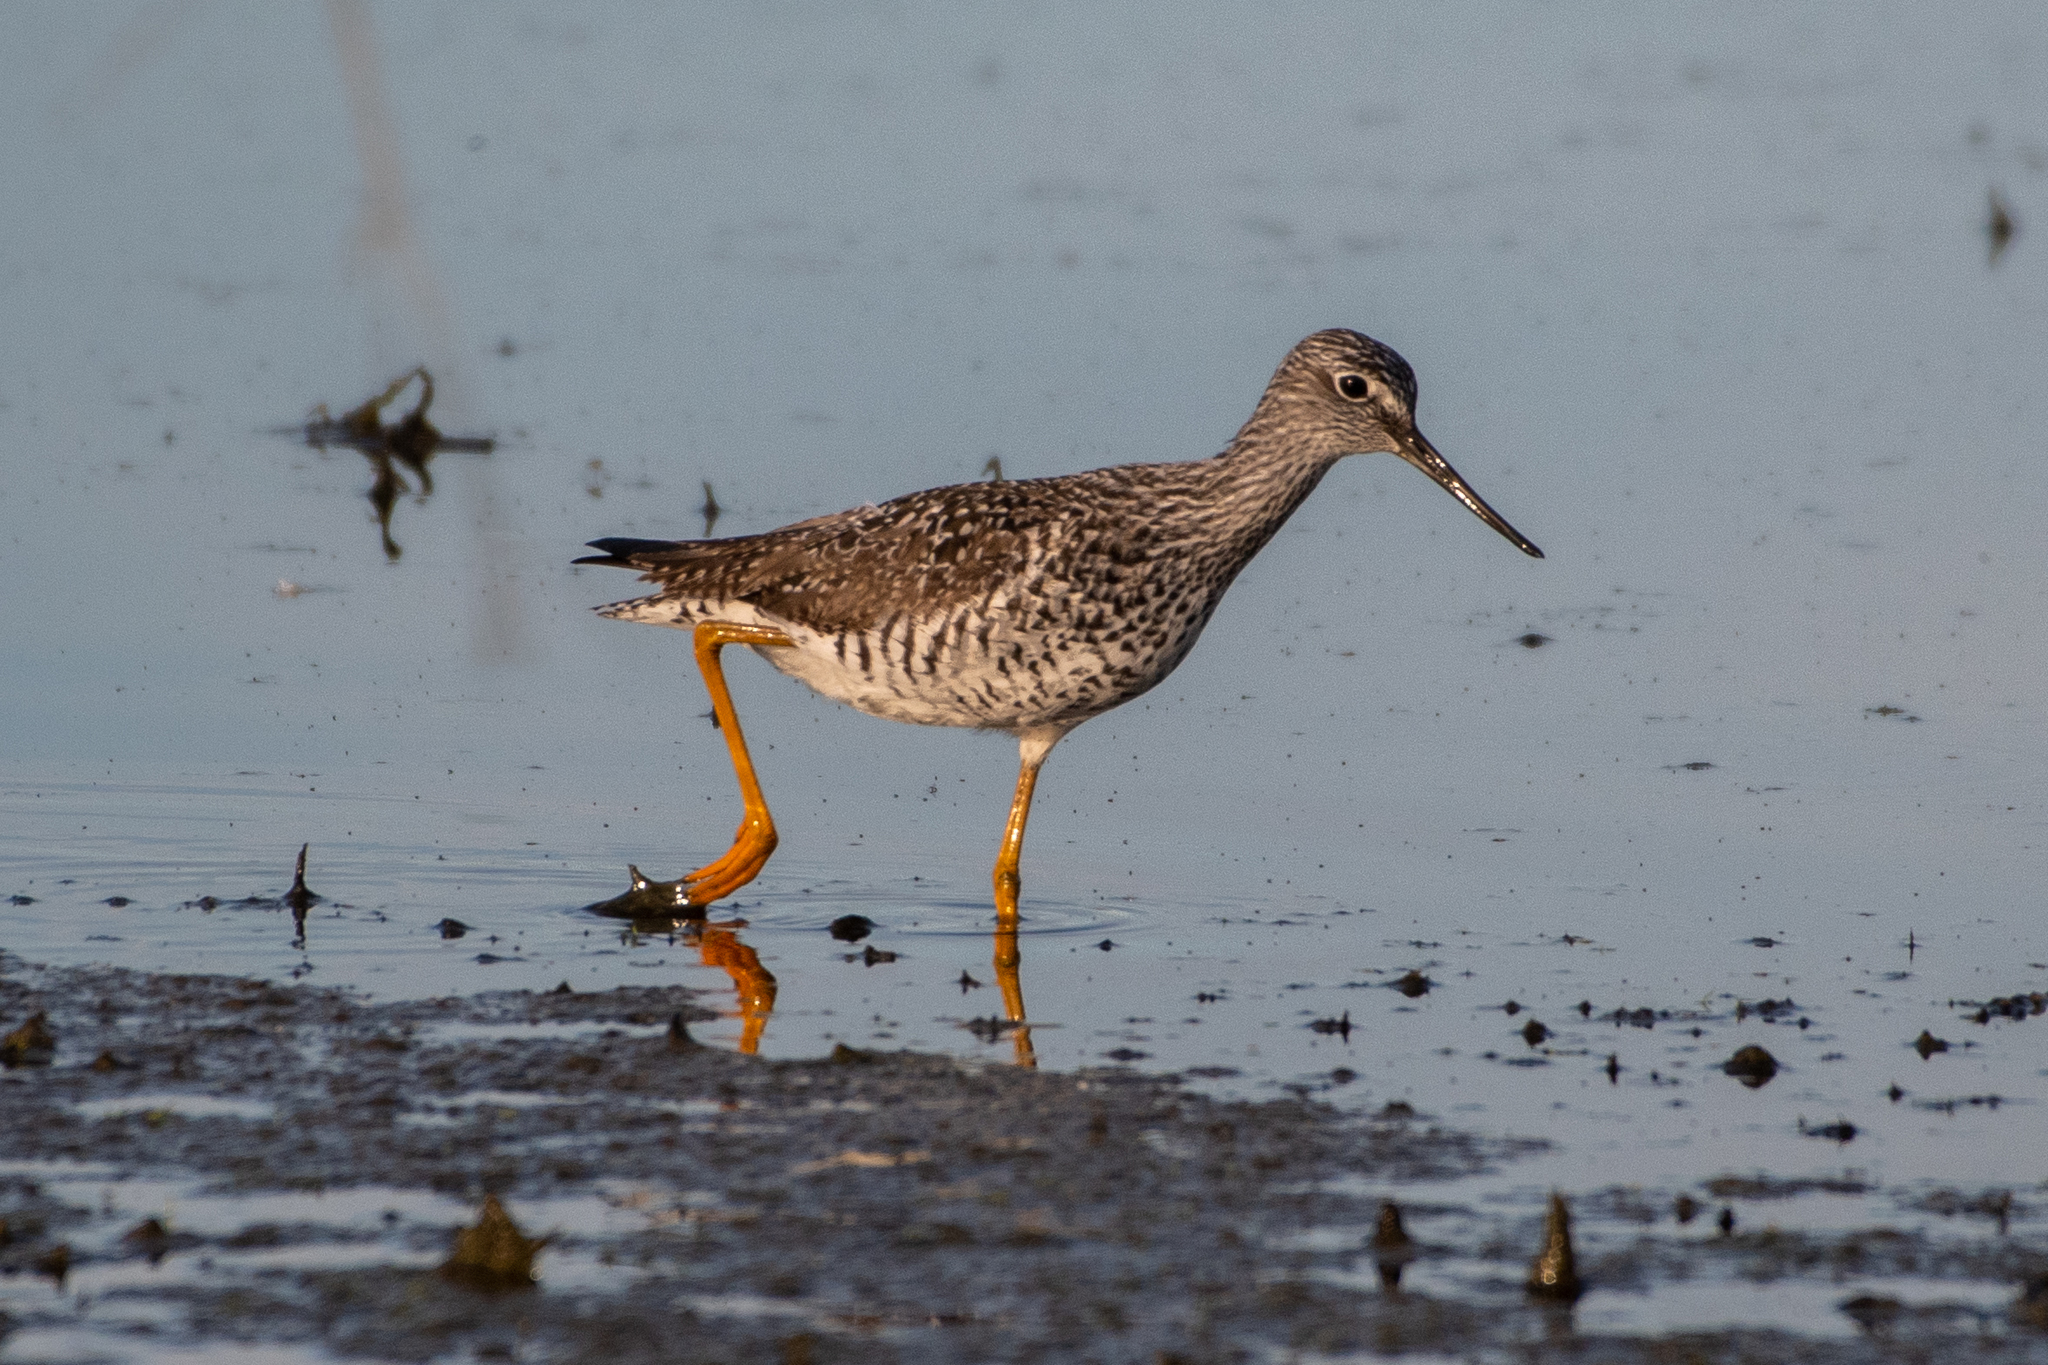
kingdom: Animalia
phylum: Chordata
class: Aves
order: Charadriiformes
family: Scolopacidae
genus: Tringa
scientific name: Tringa melanoleuca
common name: Greater yellowlegs
